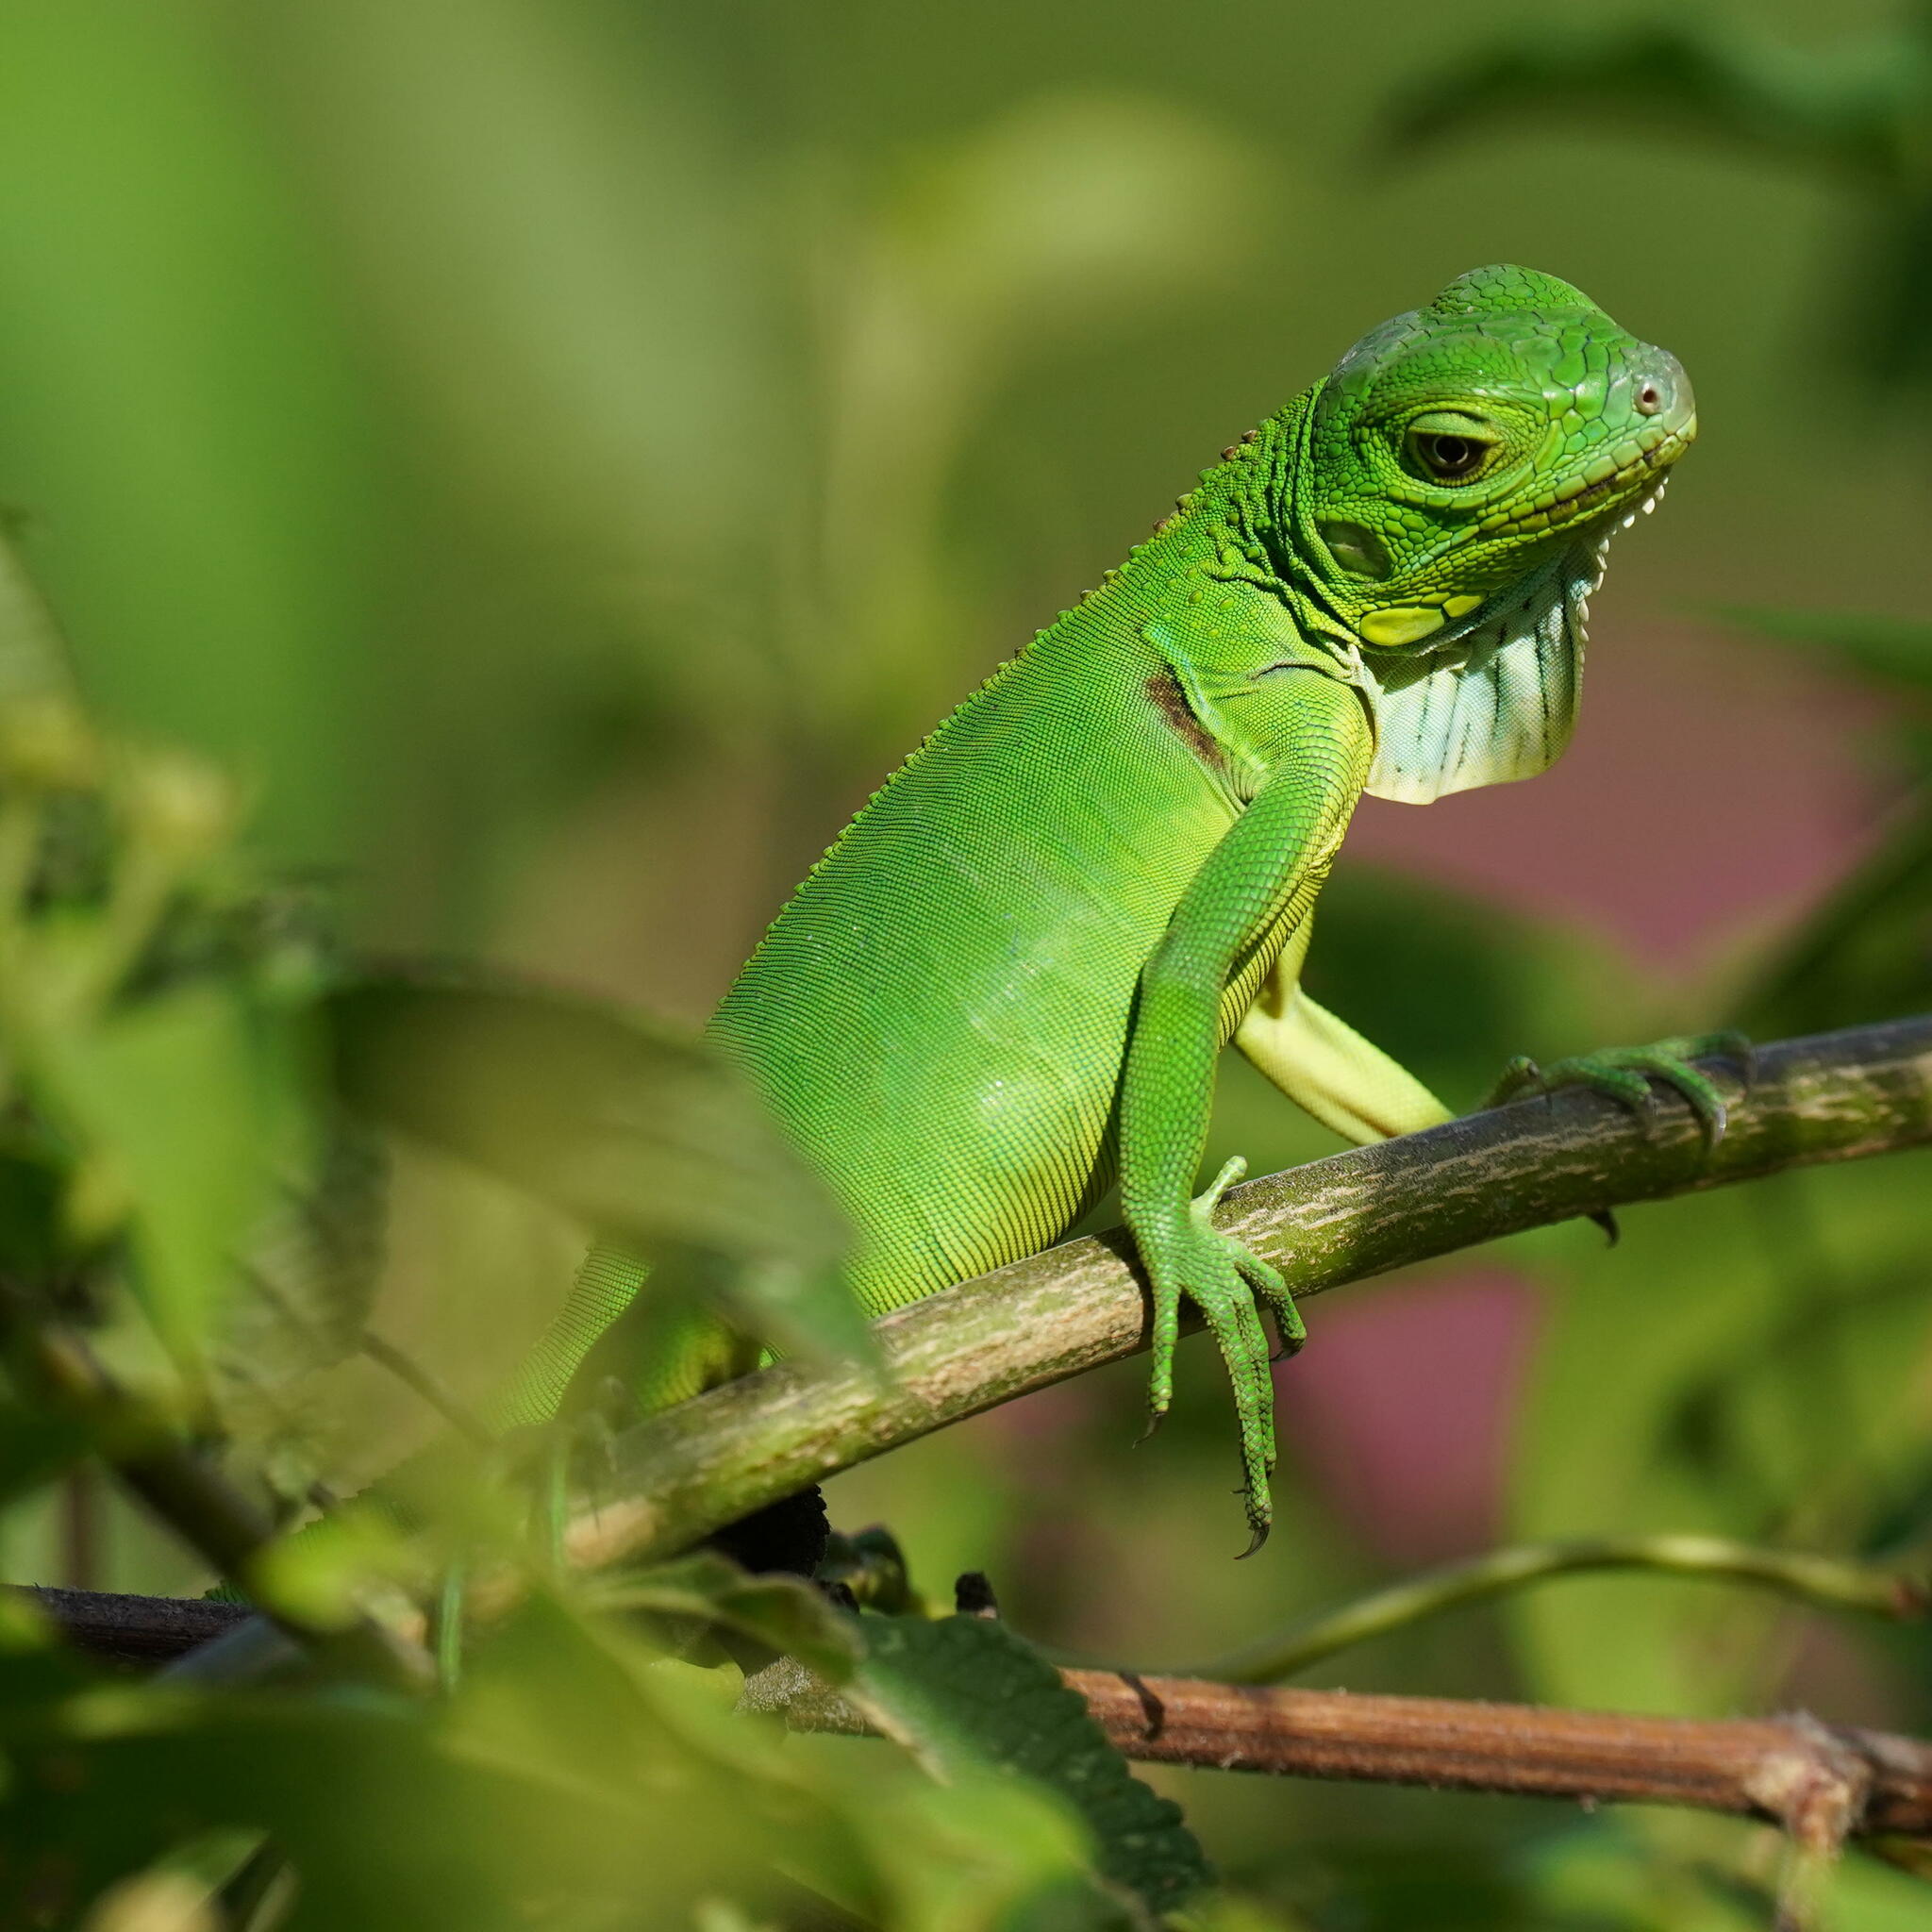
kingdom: Animalia
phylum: Chordata
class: Squamata
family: Iguanidae
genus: Iguana
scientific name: Iguana iguana
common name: Green iguana
